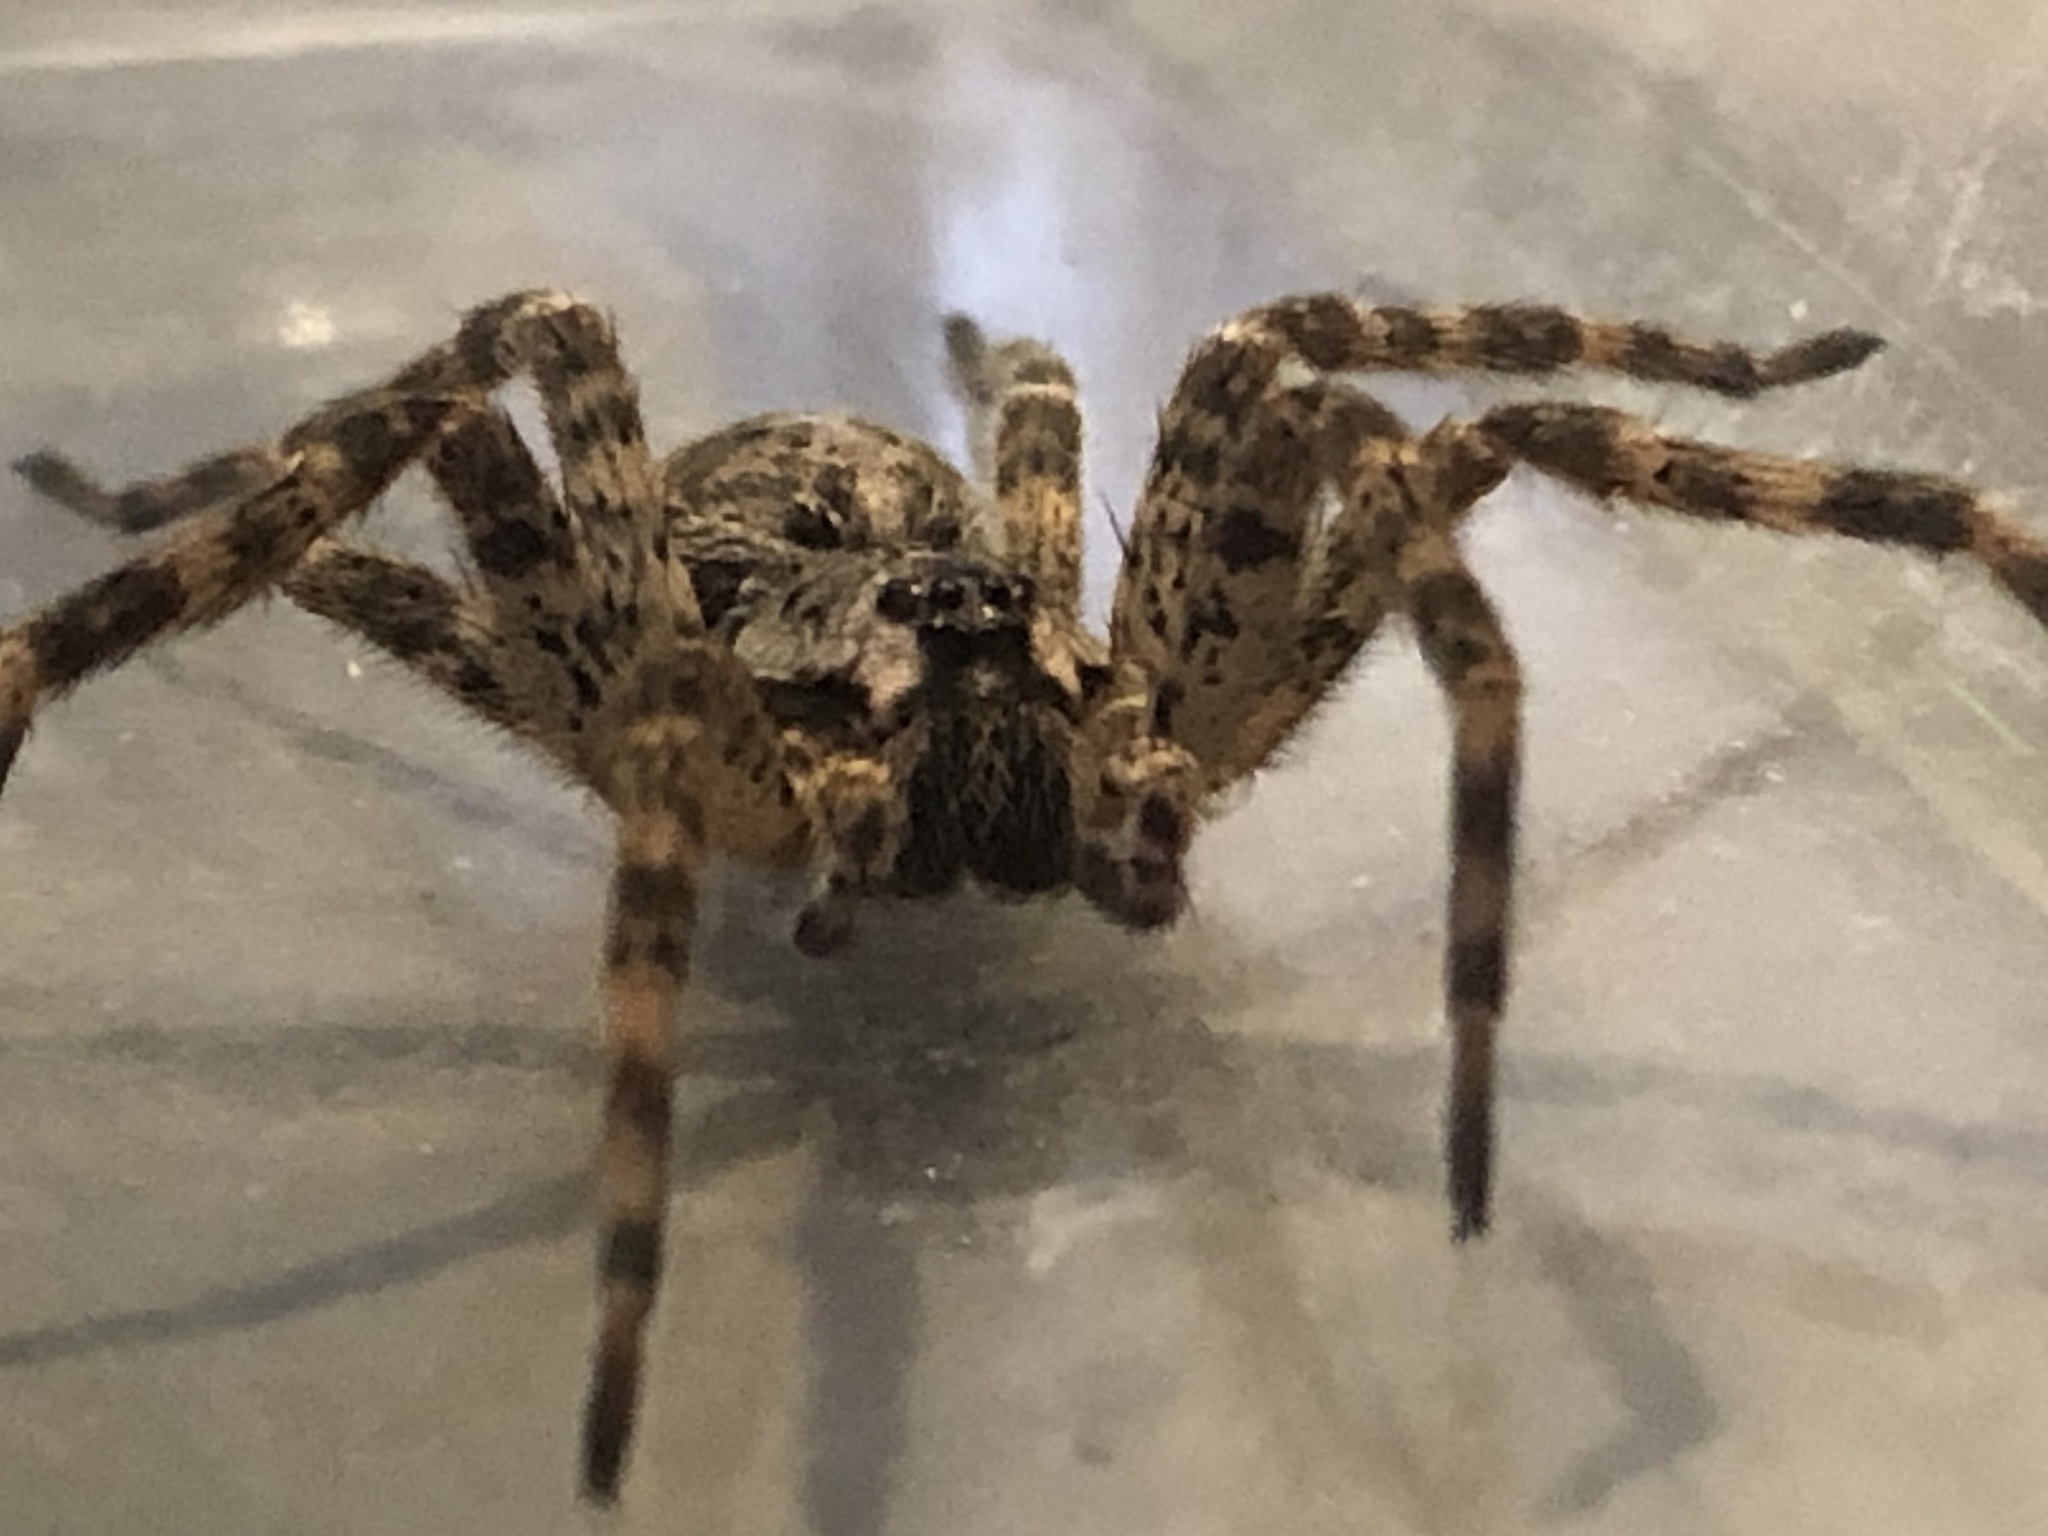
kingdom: Animalia
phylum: Arthropoda
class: Arachnida
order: Araneae
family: Pisauridae
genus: Dolomedes
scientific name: Dolomedes tenebrosus
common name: Dark fishing spider
